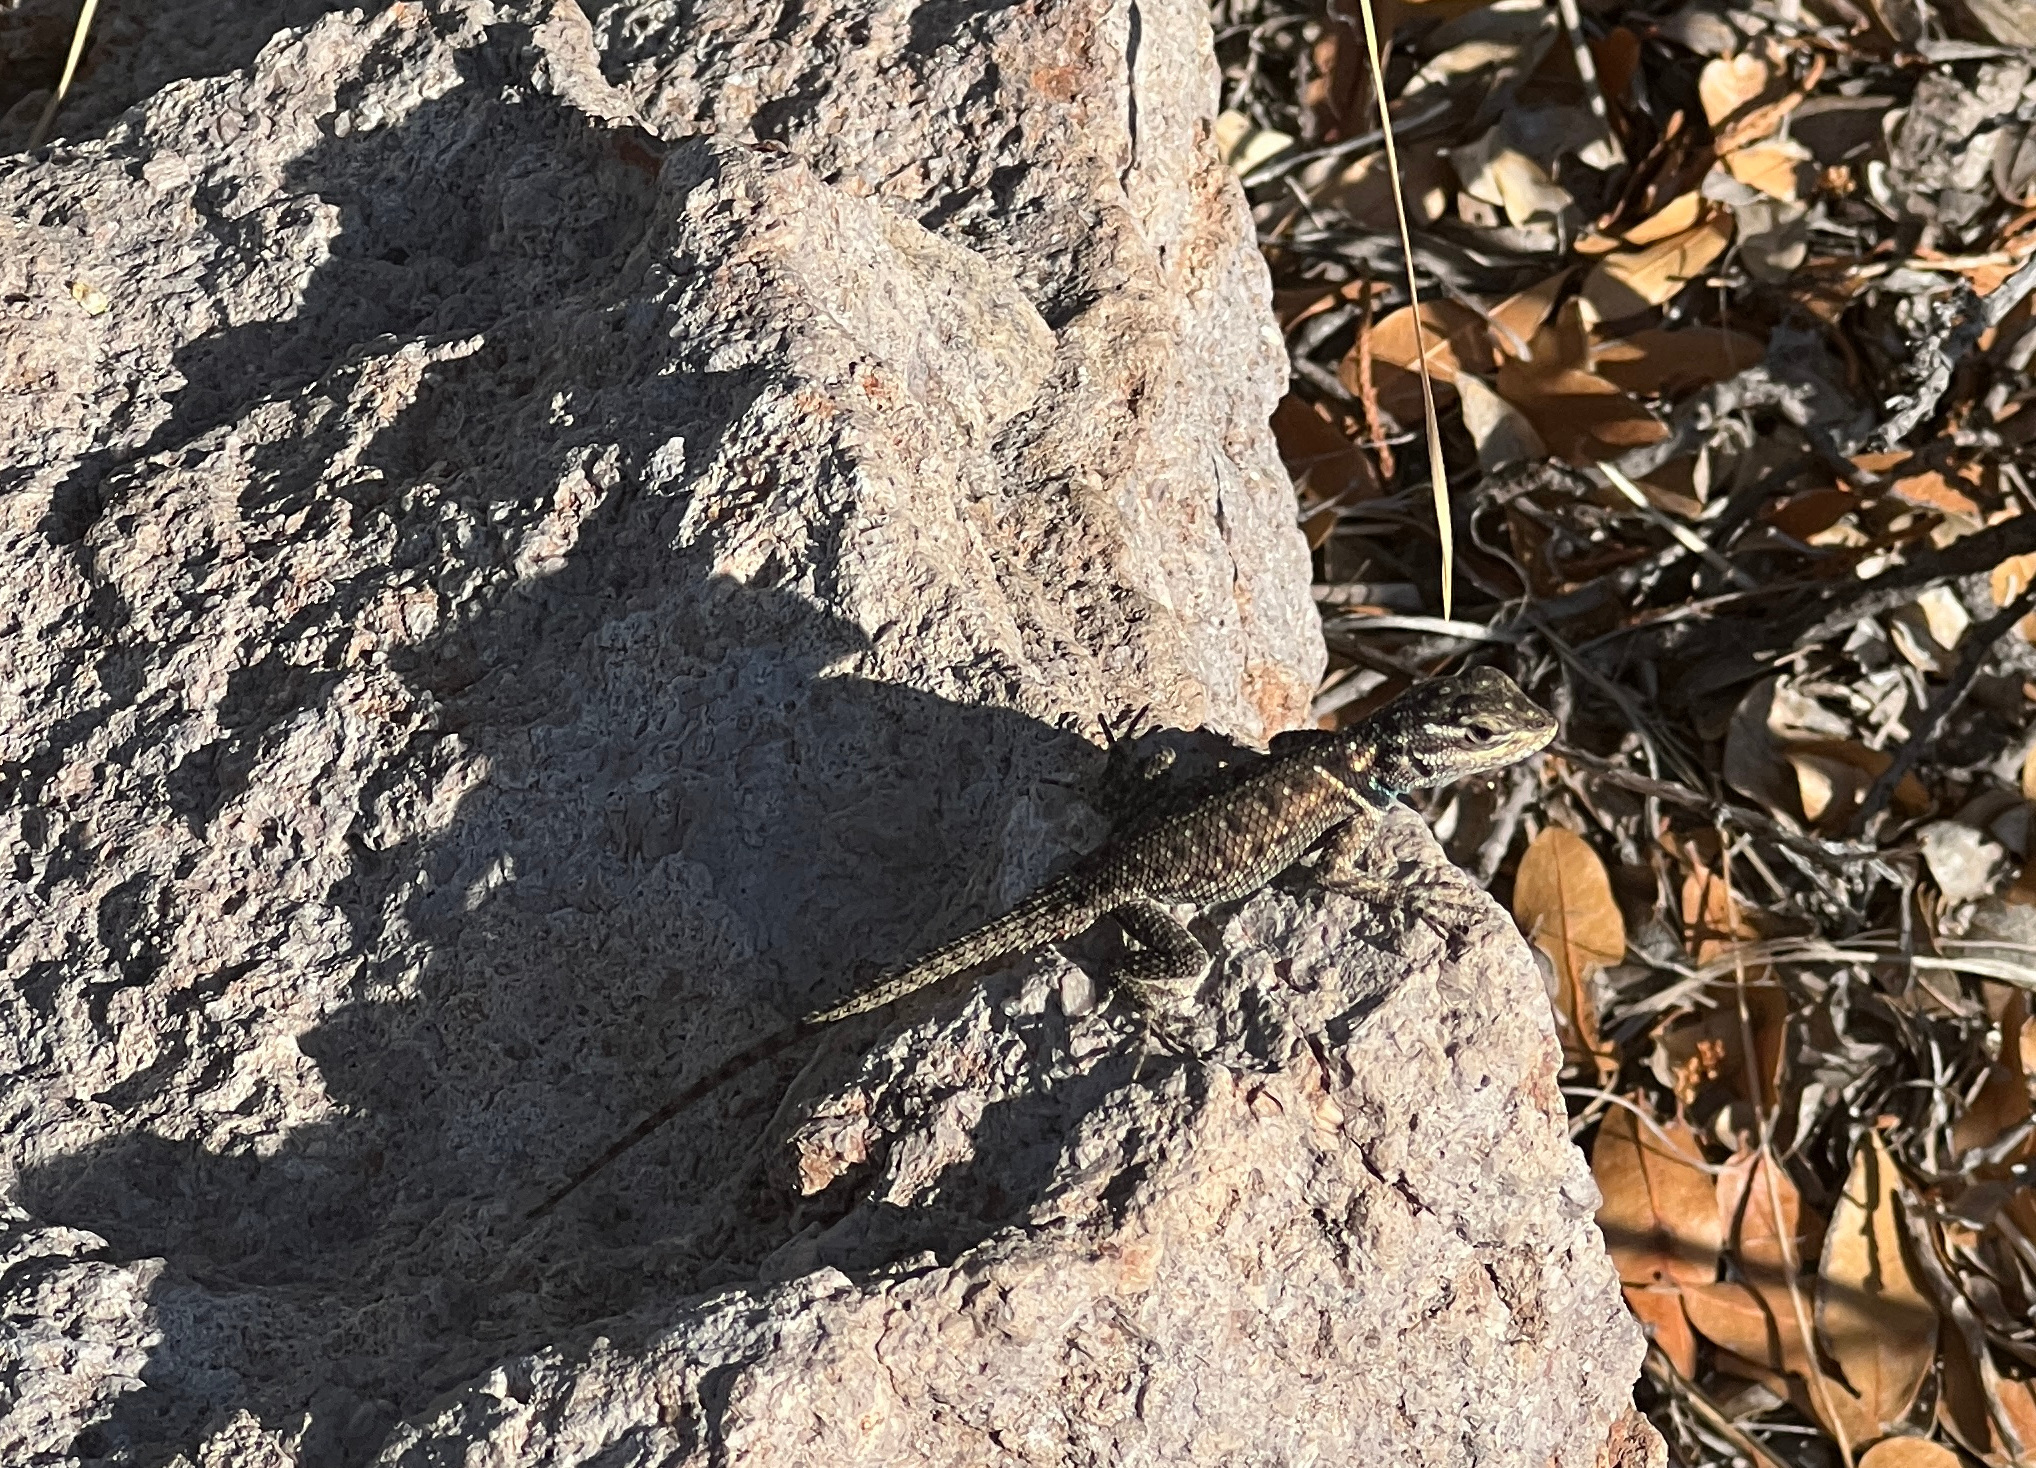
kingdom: Animalia
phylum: Chordata
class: Squamata
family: Phrynosomatidae
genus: Sceloporus
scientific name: Sceloporus jarrovii
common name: Yarrow's spiny lizard
